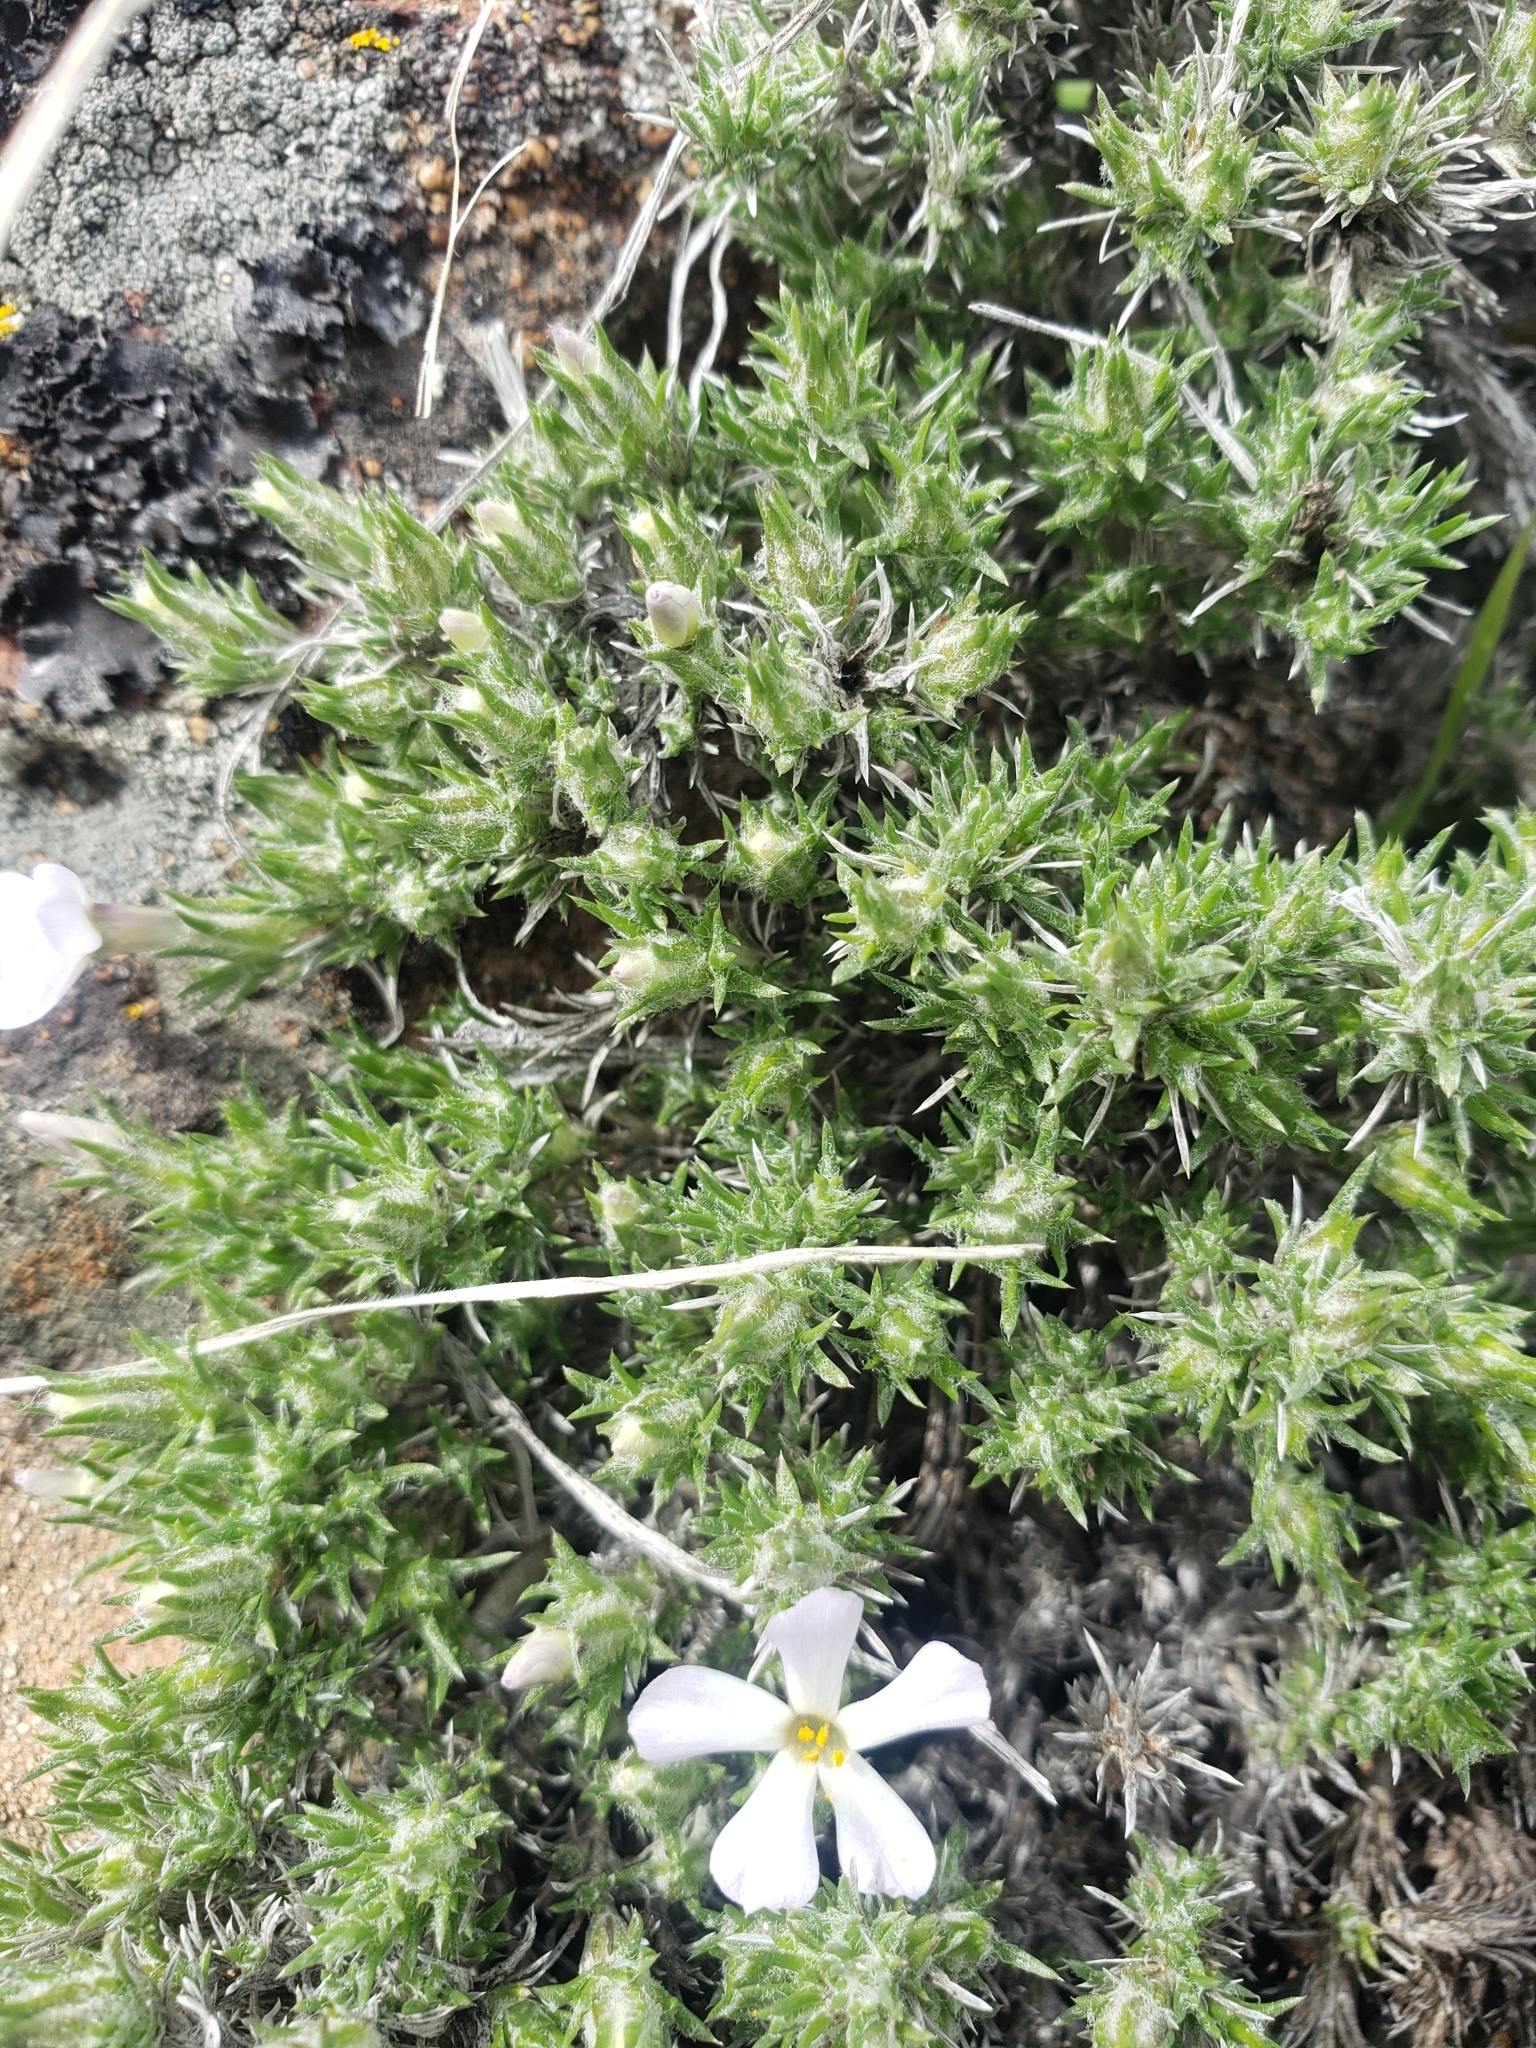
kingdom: Plantae
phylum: Tracheophyta
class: Magnoliopsida
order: Ericales
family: Polemoniaceae
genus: Phlox
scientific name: Phlox hoodii
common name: Moss phlox
